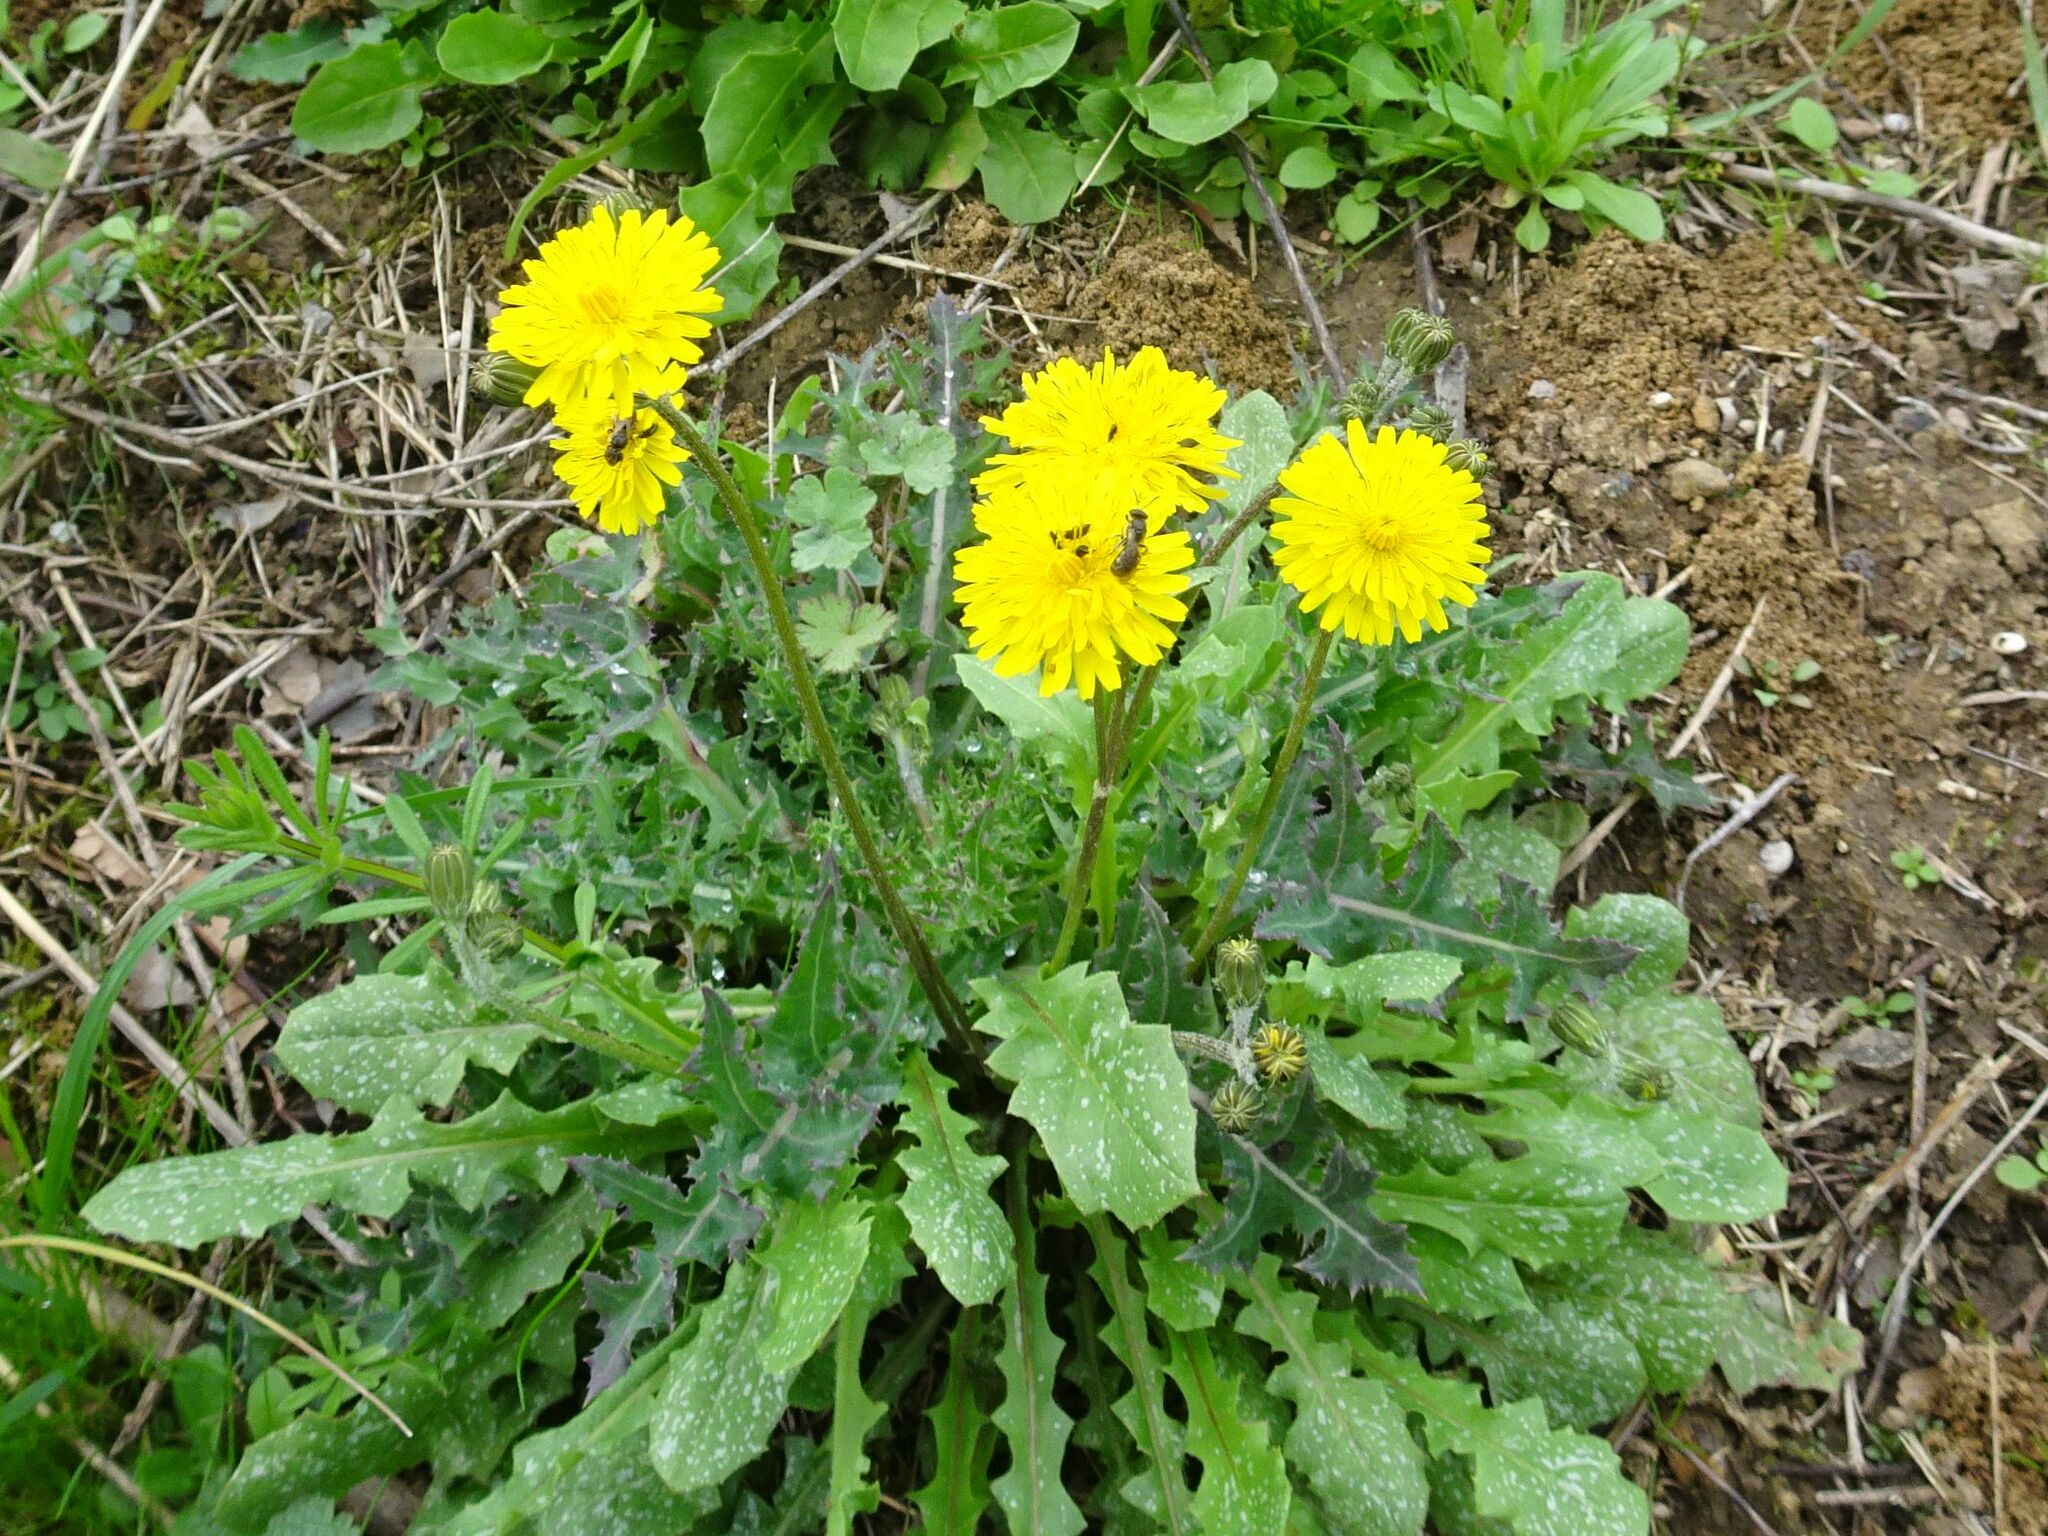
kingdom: Plantae
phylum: Tracheophyta
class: Magnoliopsida
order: Asterales
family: Asteraceae
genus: Hypochaeris
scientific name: Hypochaeris radicata
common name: Flatweed
